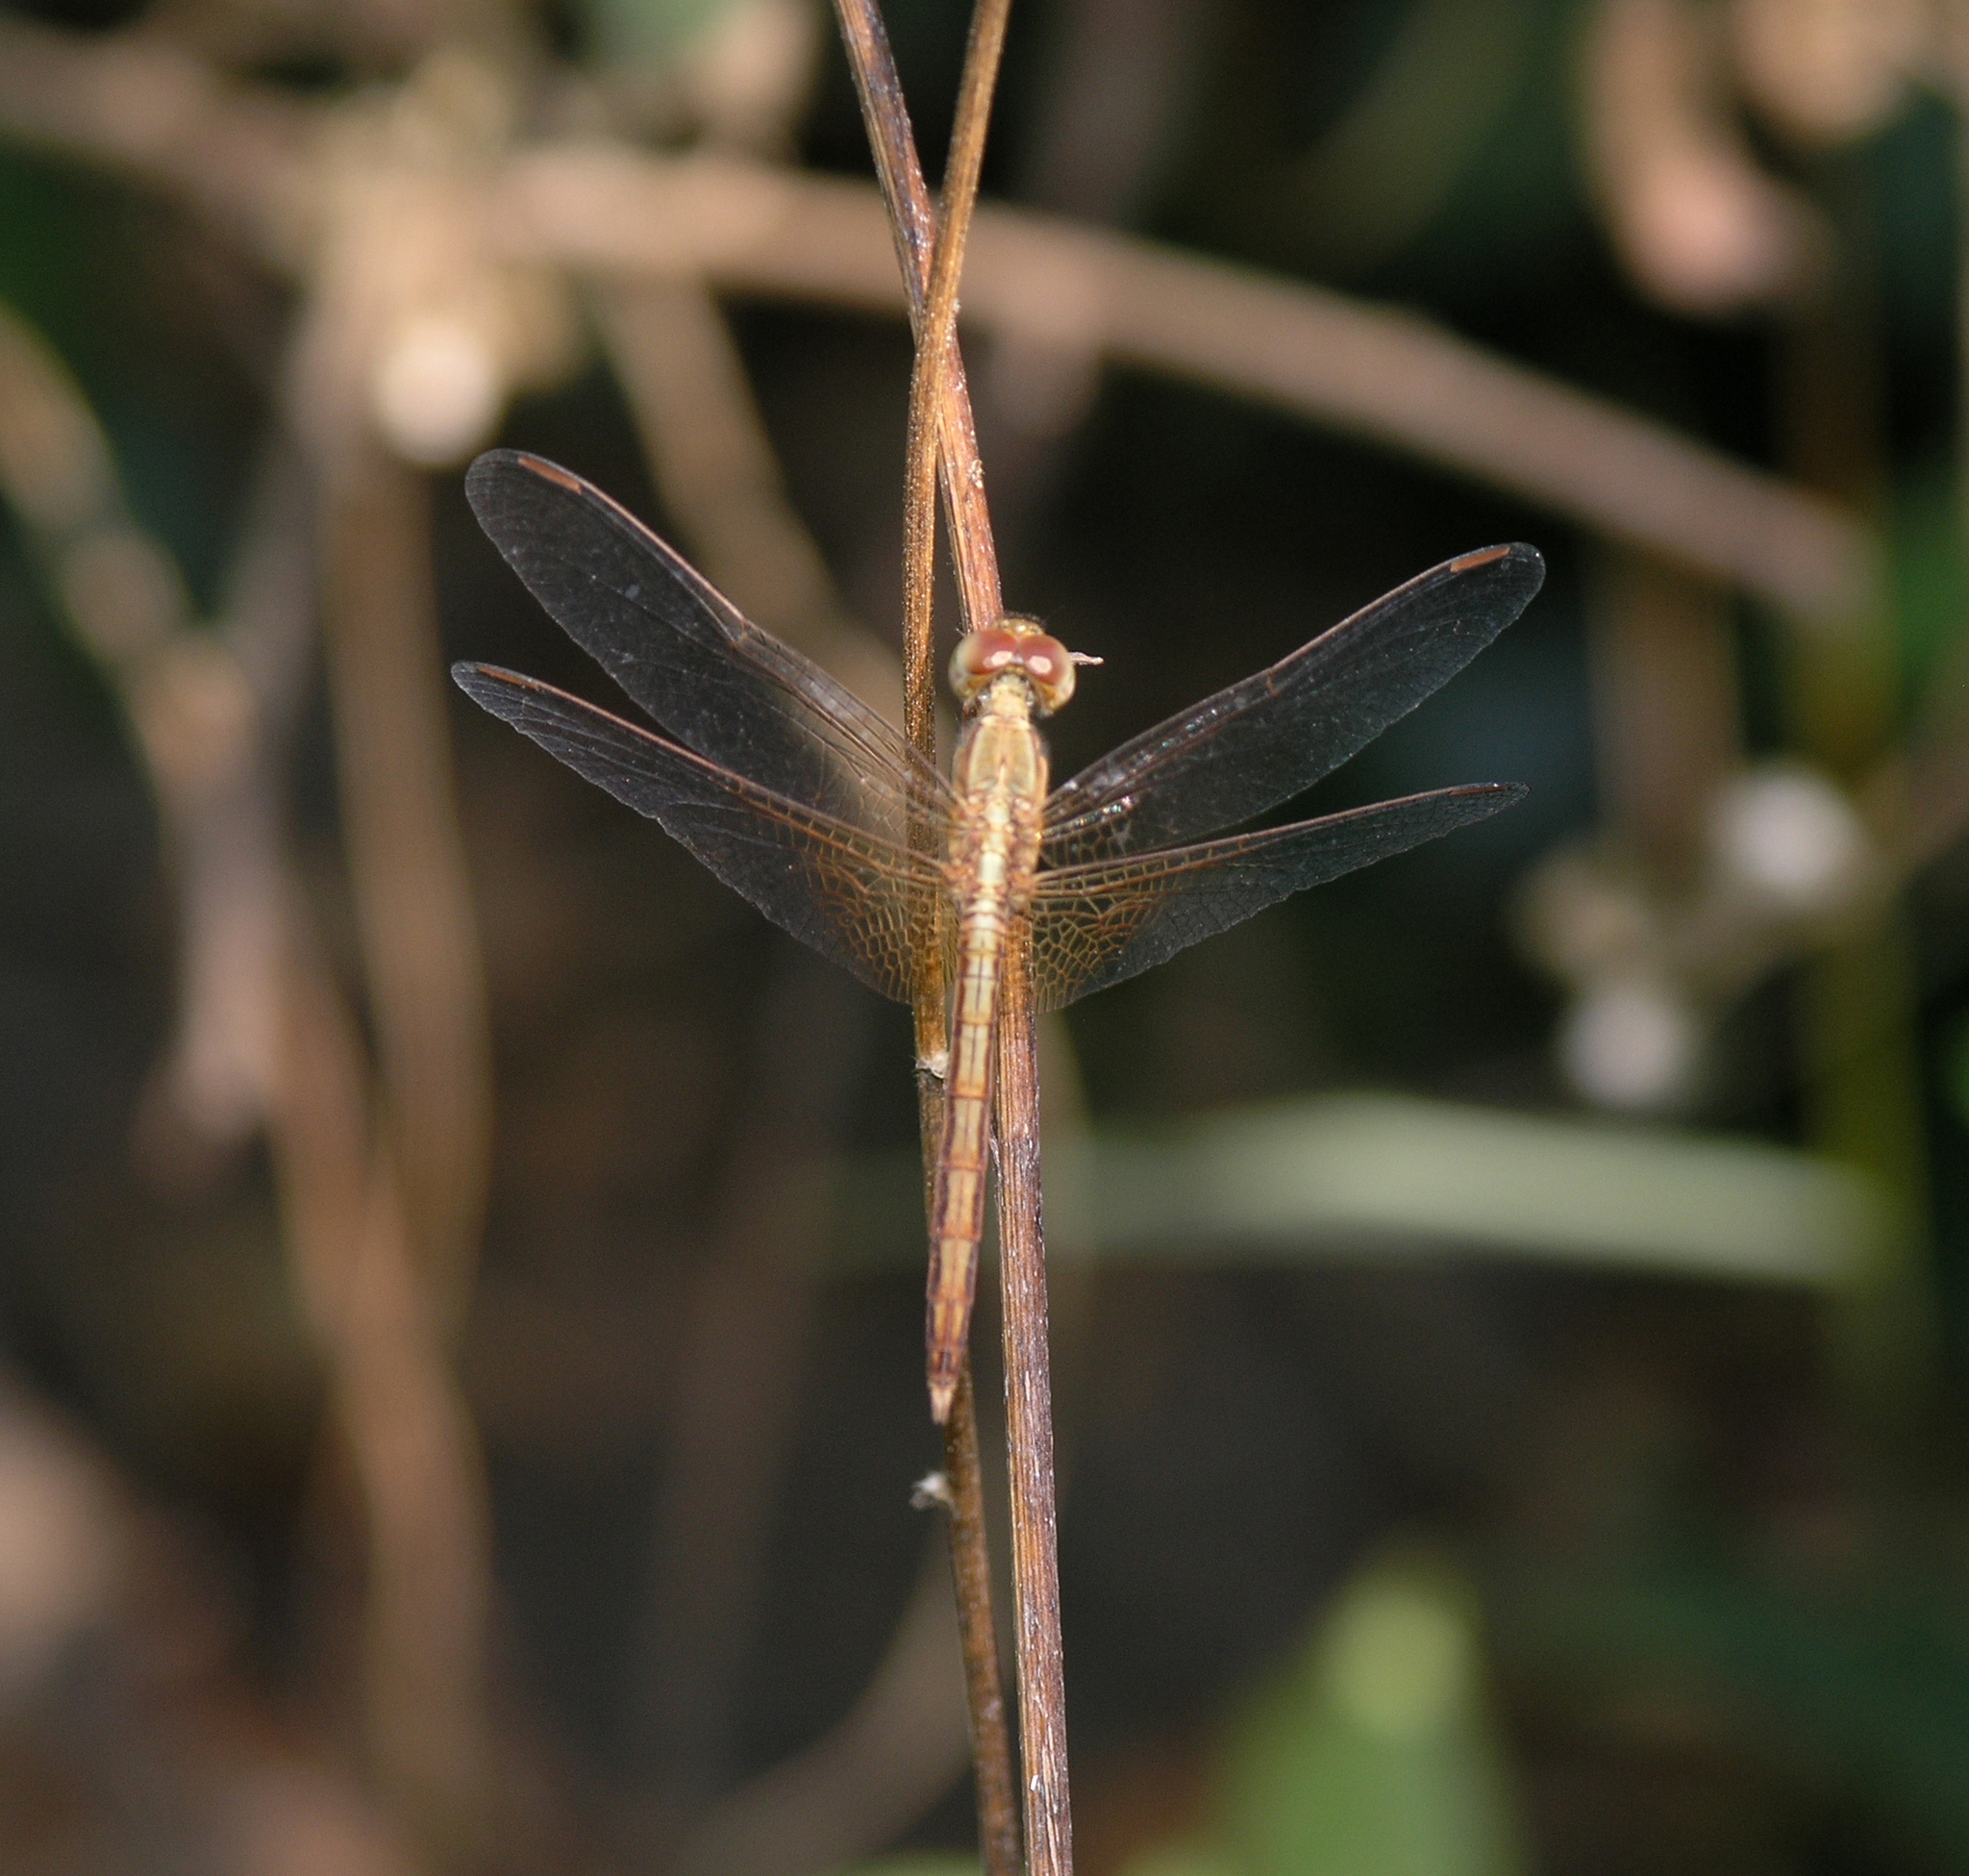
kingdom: Animalia
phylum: Arthropoda
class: Insecta
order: Odonata
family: Libellulidae
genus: Neurothemis
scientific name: Neurothemis intermedia
